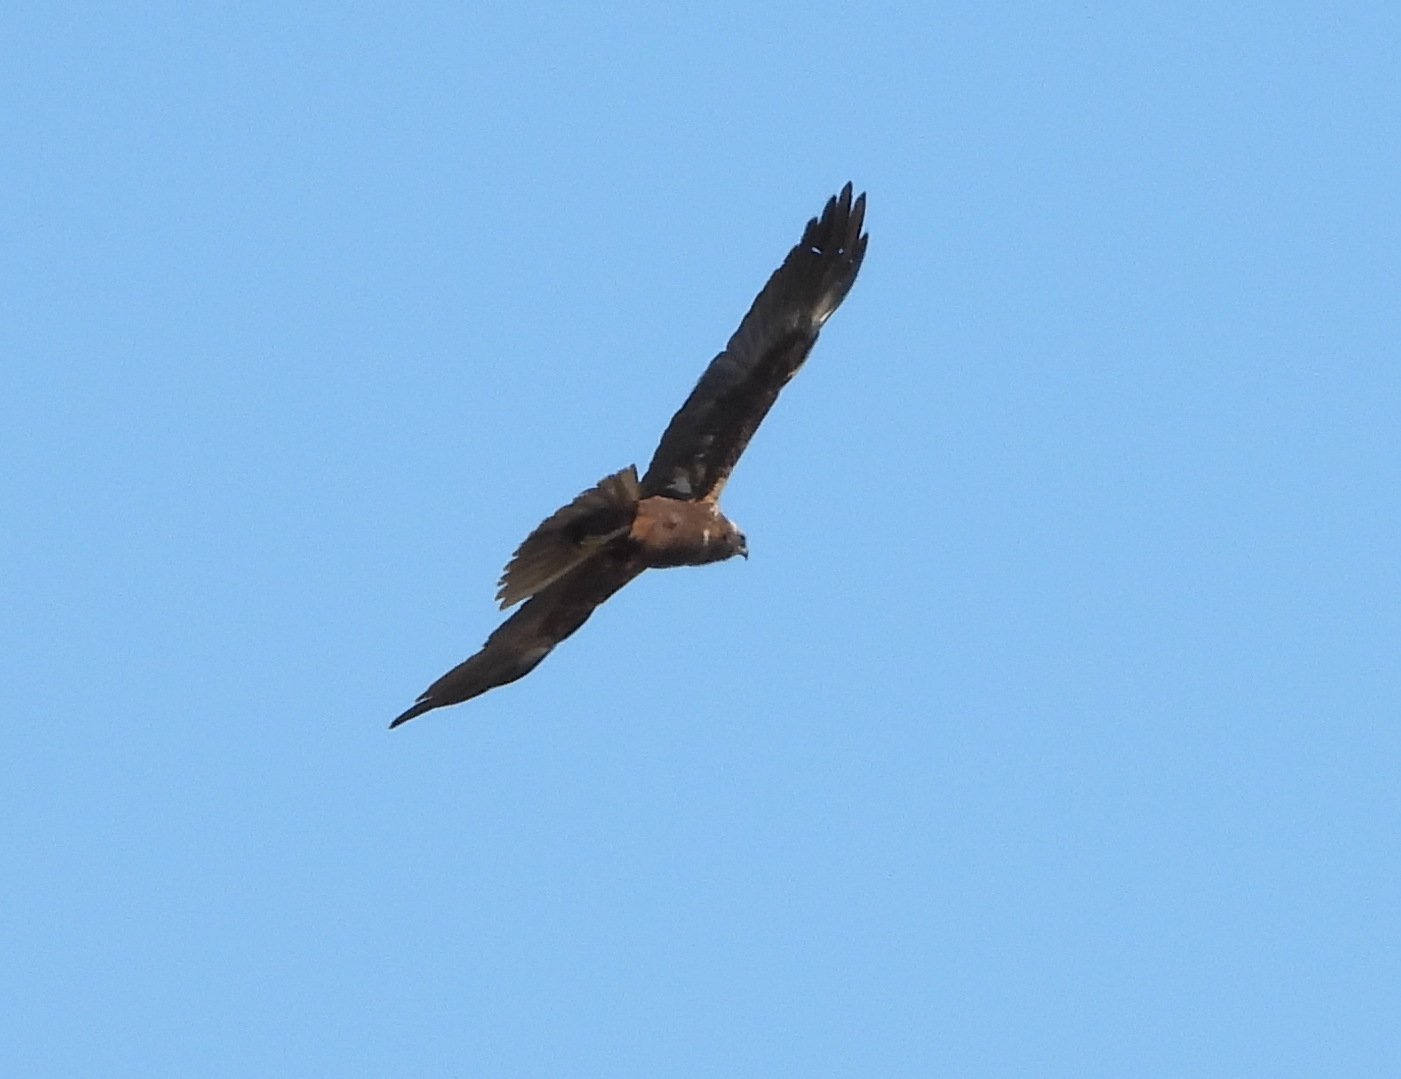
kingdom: Animalia
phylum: Chordata
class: Aves
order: Accipitriformes
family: Accipitridae
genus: Circus
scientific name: Circus aeruginosus
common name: Western marsh harrier
